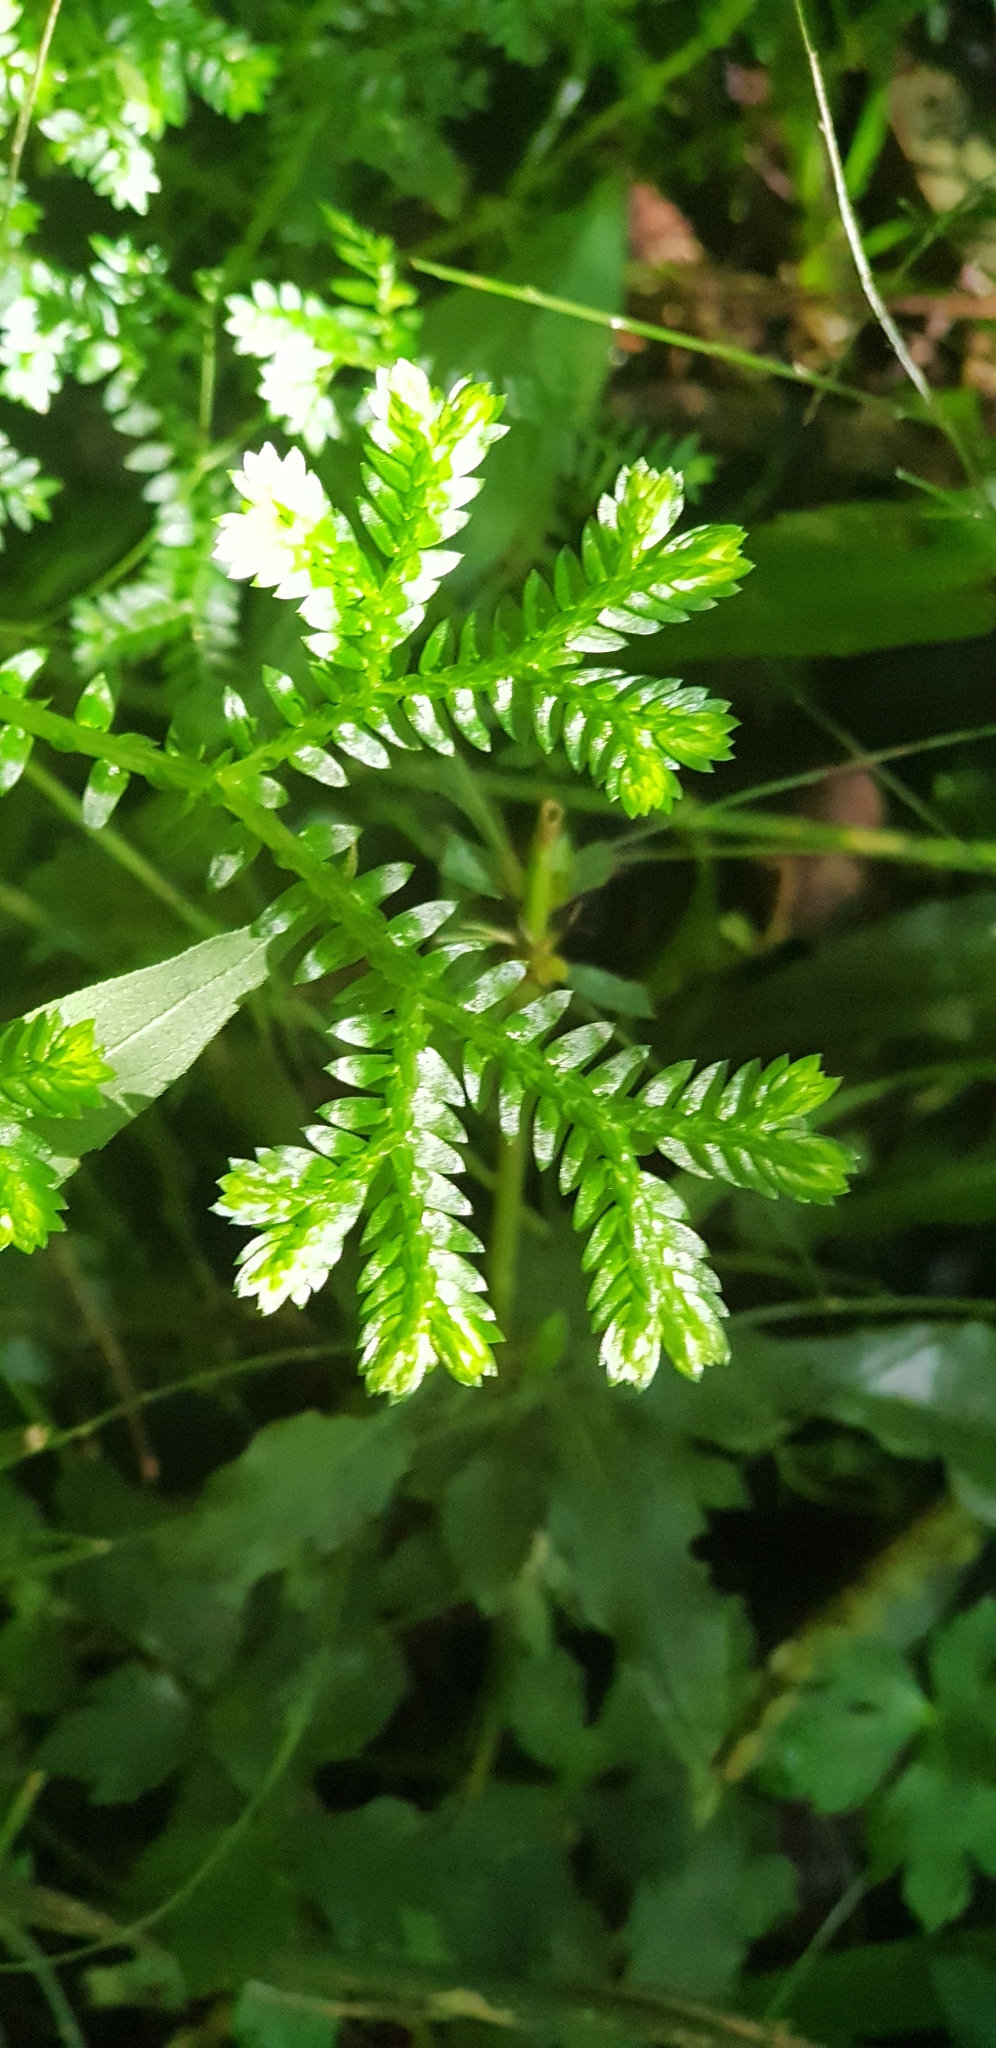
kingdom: Plantae
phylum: Tracheophyta
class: Lycopodiopsida
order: Selaginellales
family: Selaginellaceae
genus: Selaginella
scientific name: Selaginella kraussiana
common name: Krauss' spikemoss
